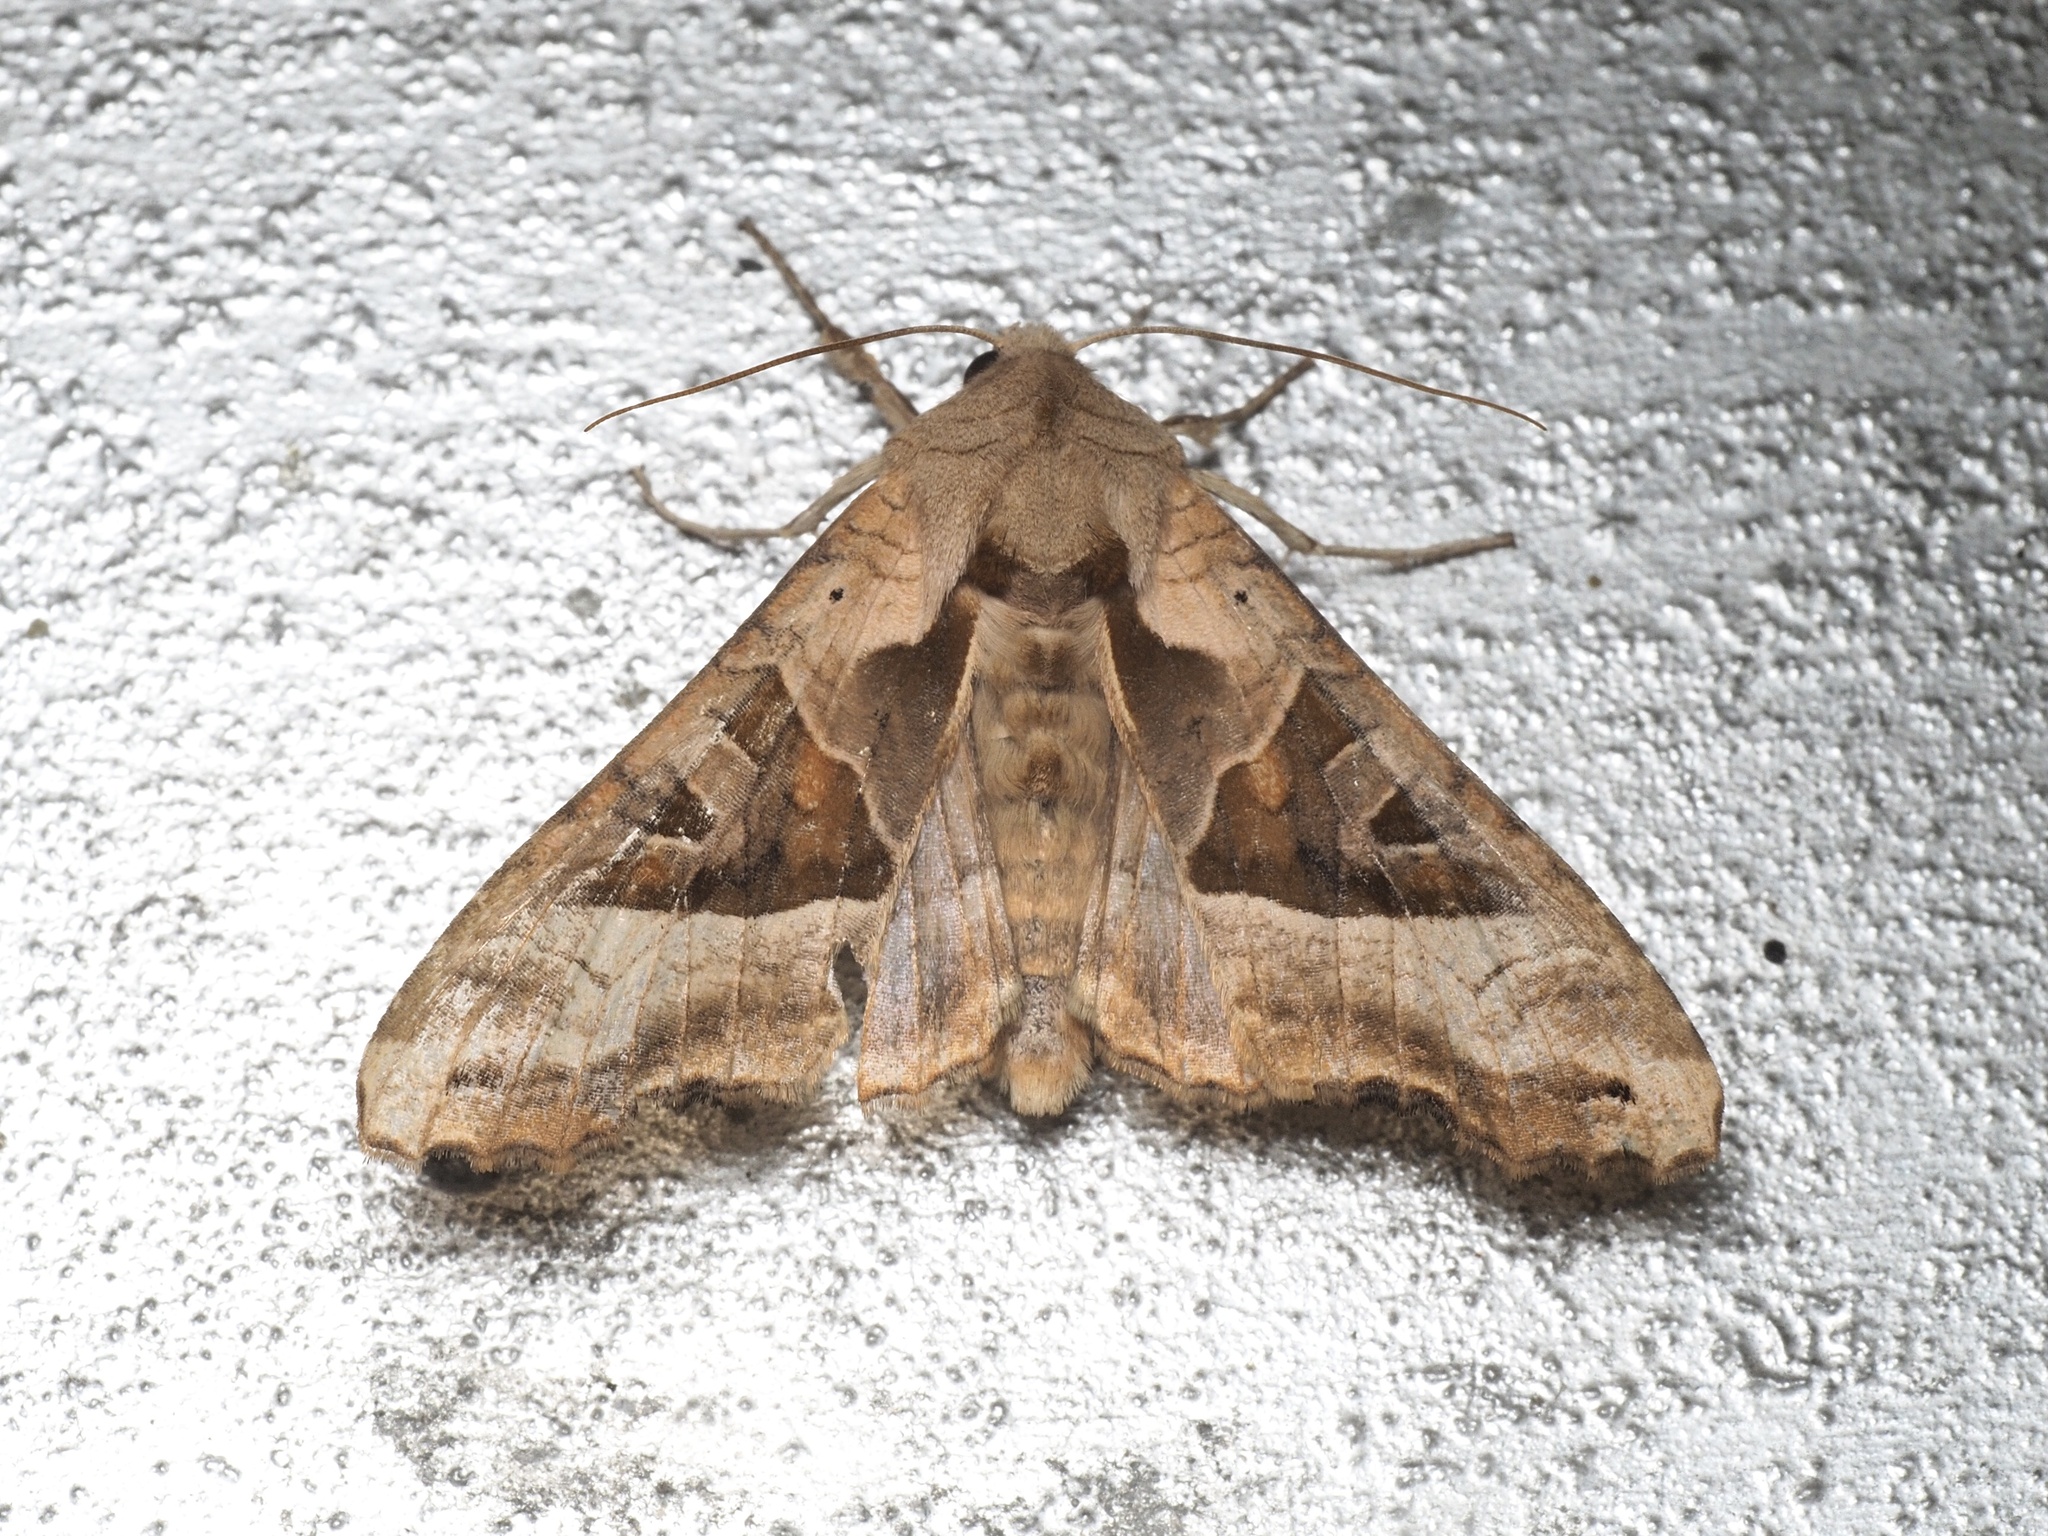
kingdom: Animalia
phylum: Arthropoda
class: Insecta
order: Lepidoptera
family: Noctuidae
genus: Phlogophora
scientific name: Phlogophora meticulosa
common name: Angle shades
